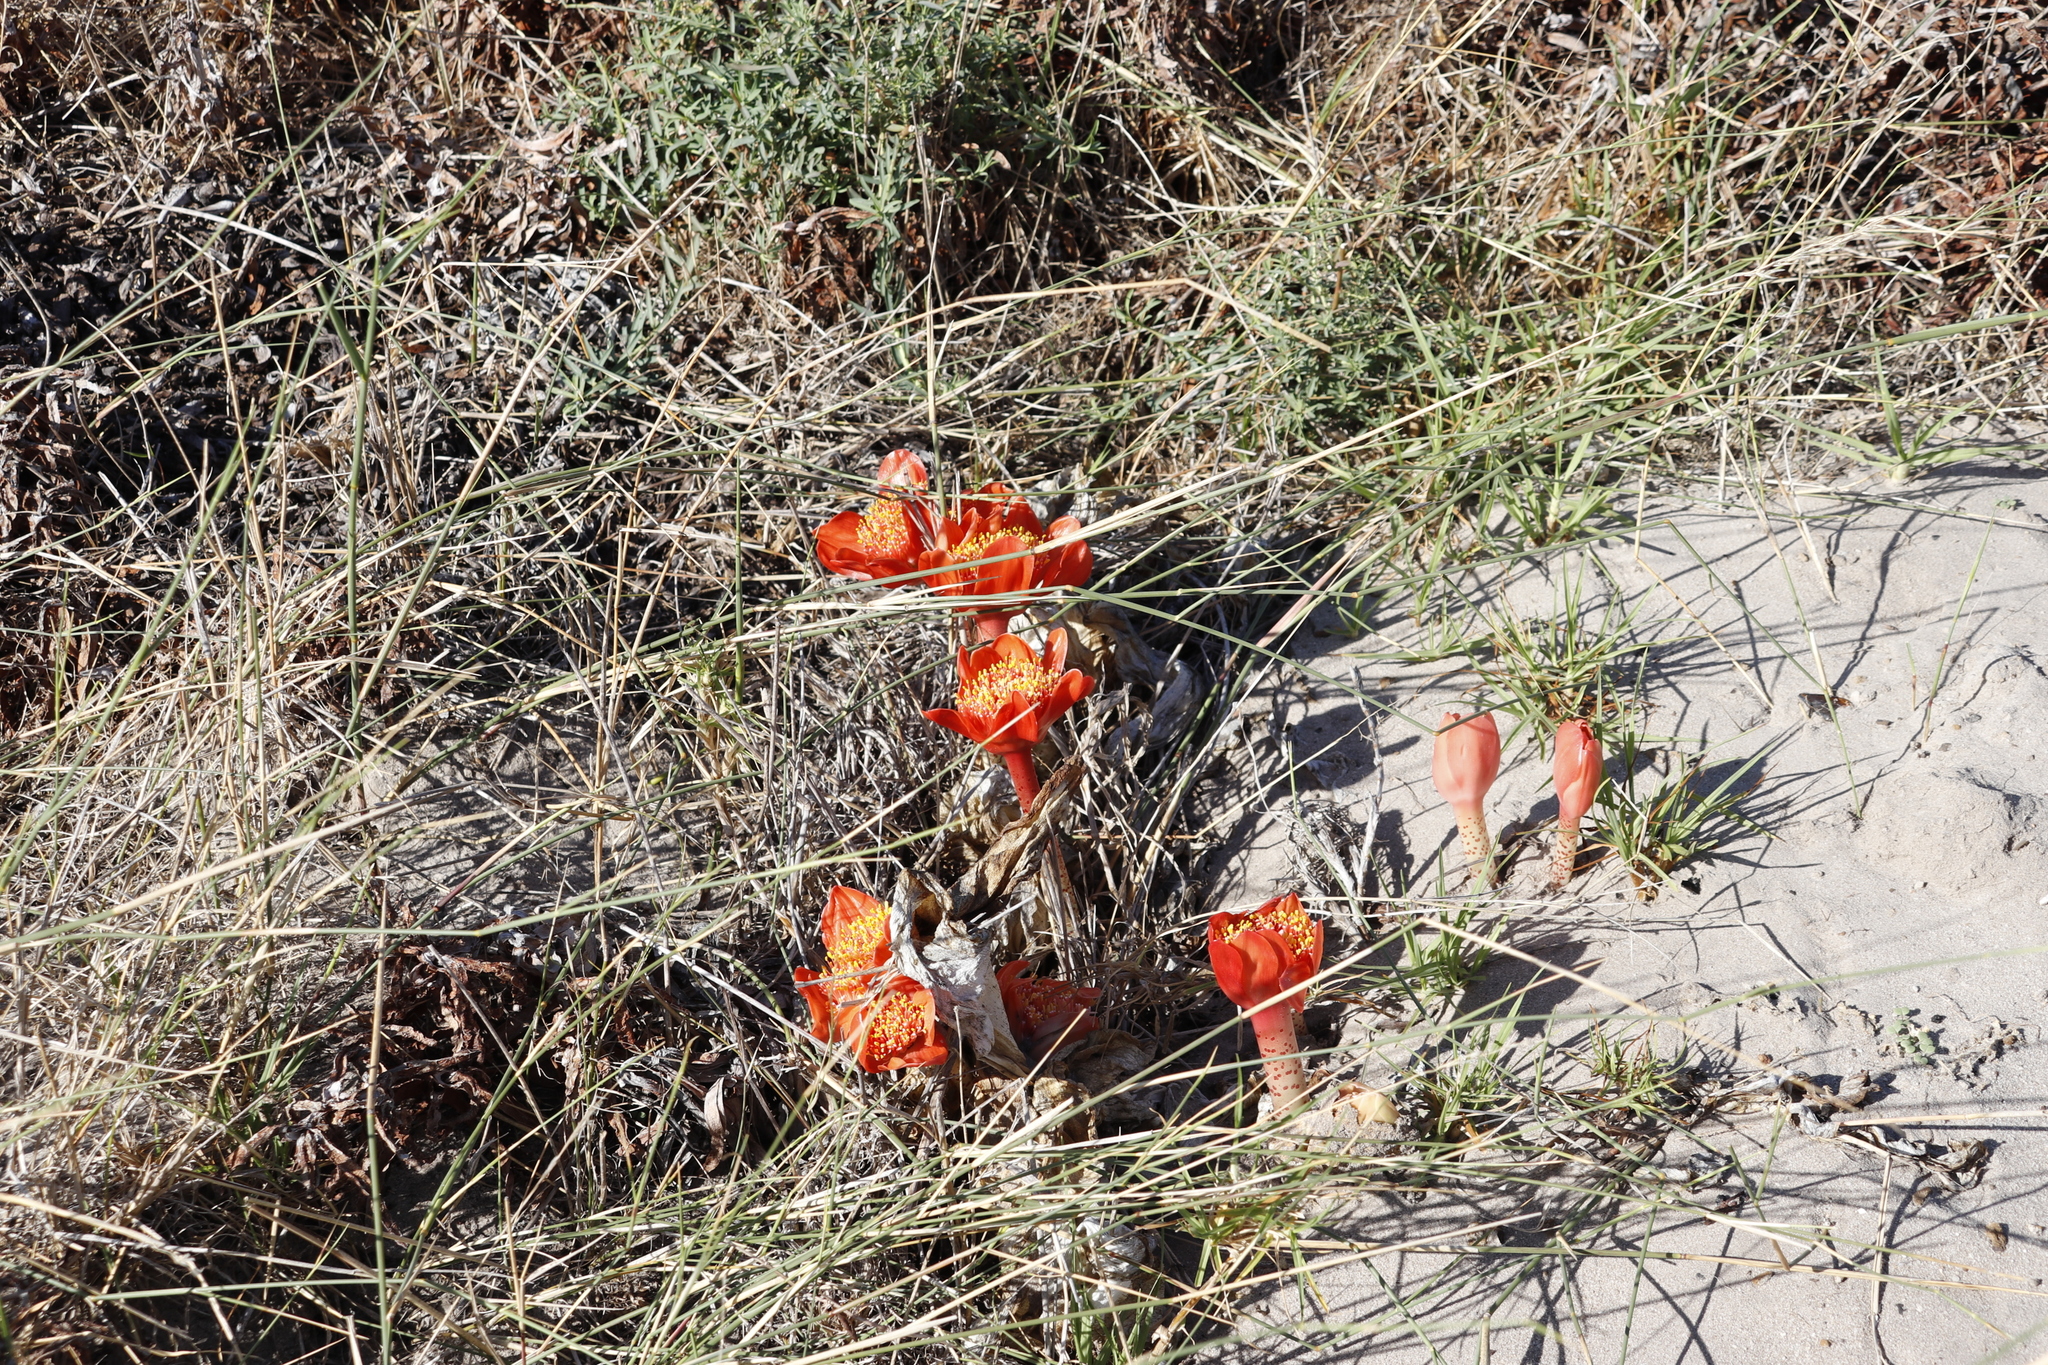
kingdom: Plantae
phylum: Tracheophyta
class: Liliopsida
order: Asparagales
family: Amaryllidaceae
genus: Haemanthus
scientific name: Haemanthus coccineus
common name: Cape-tulip
